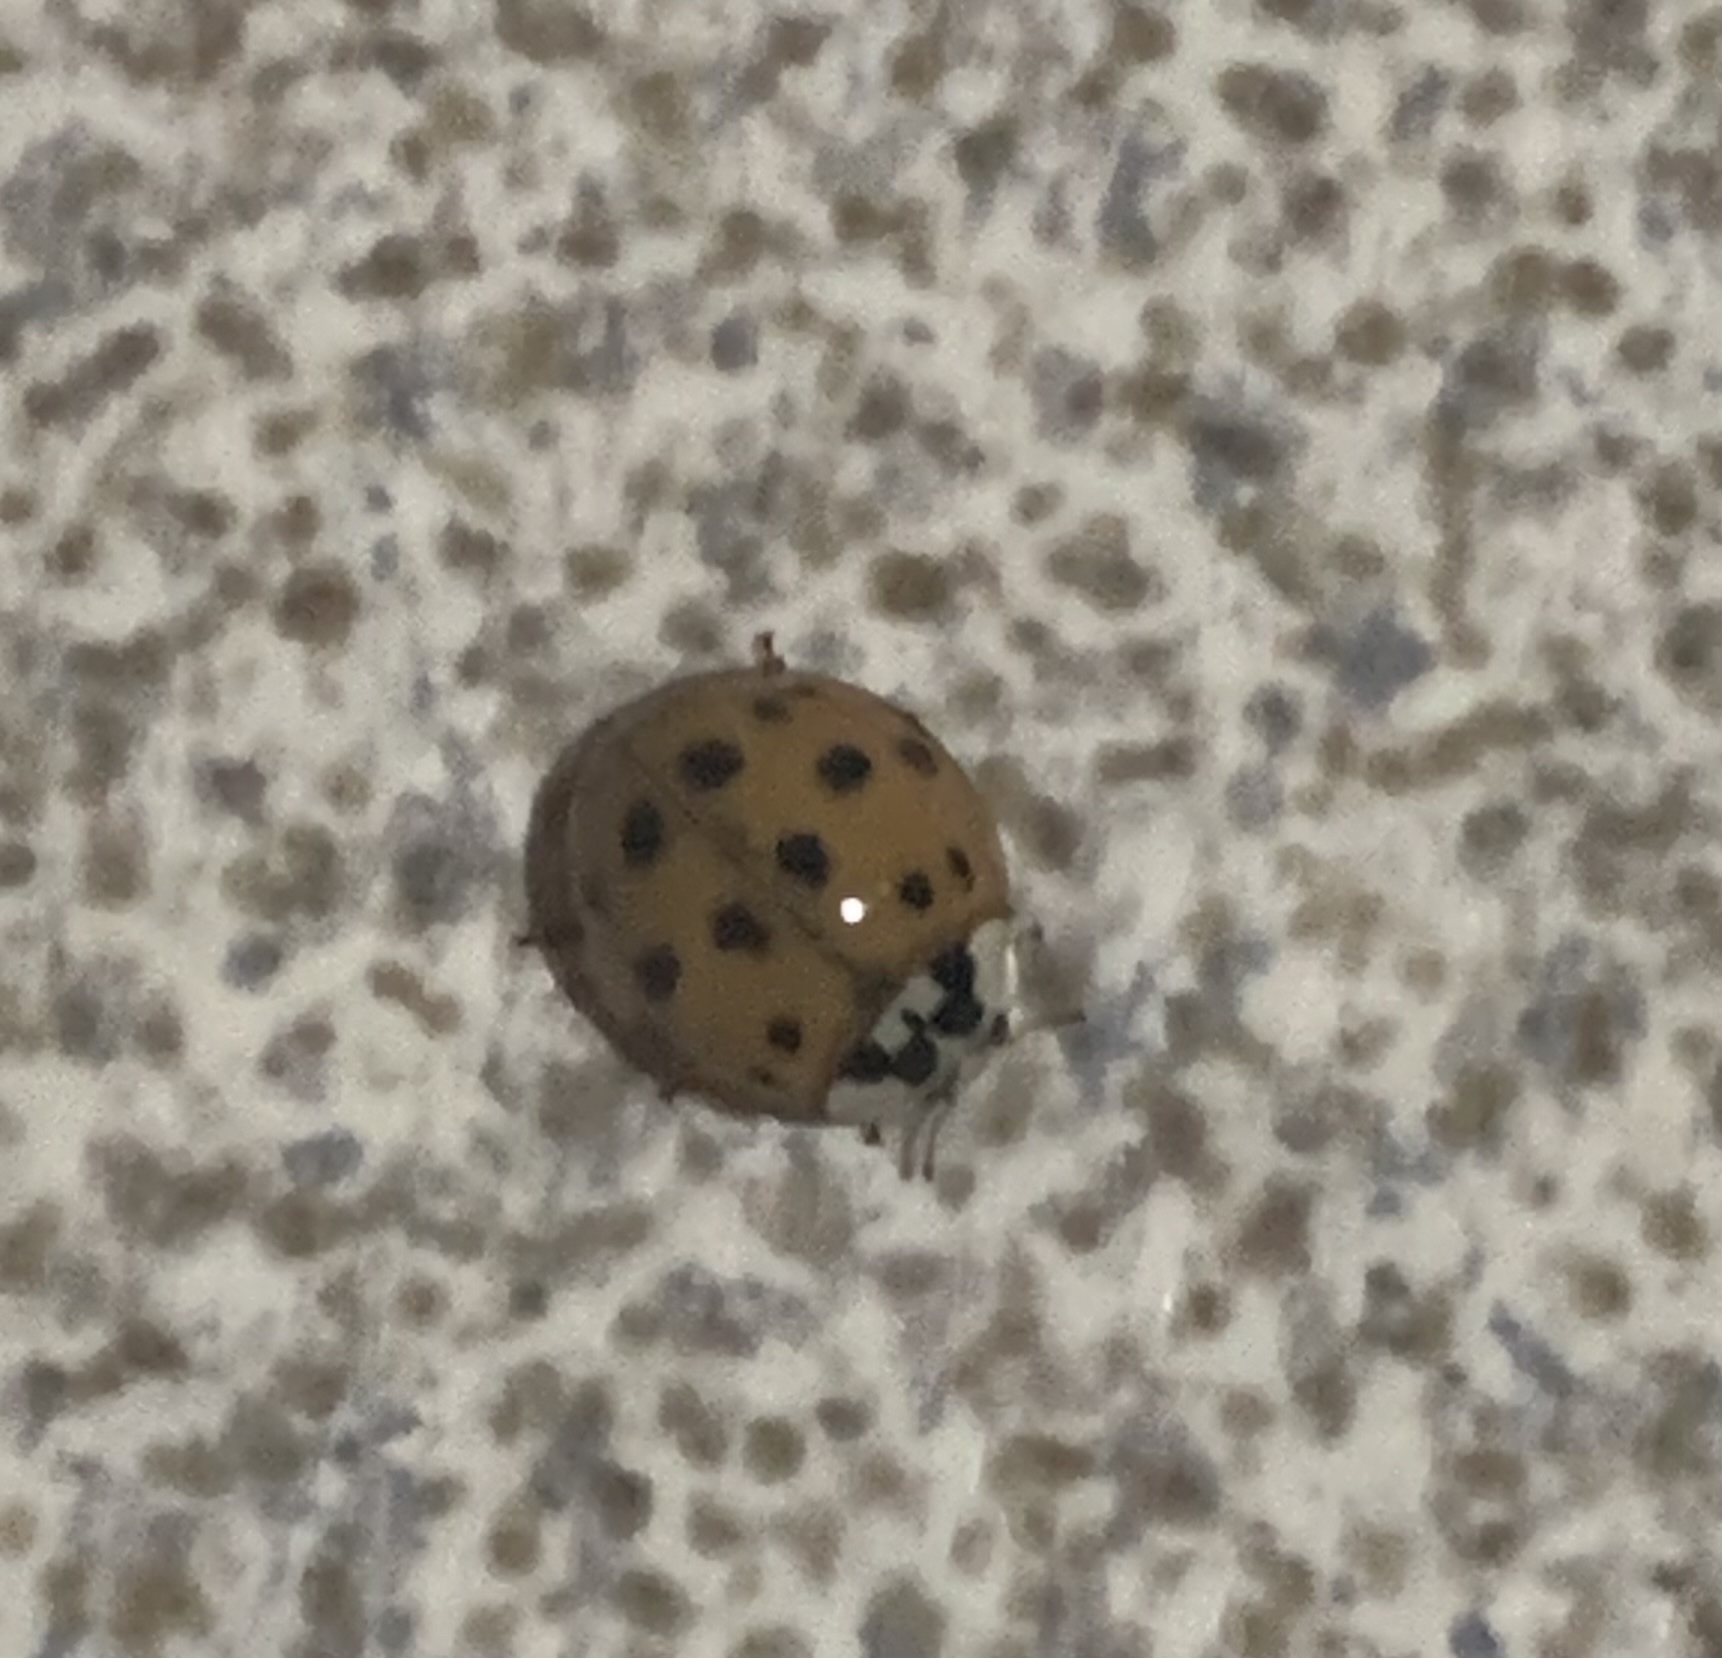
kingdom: Animalia
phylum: Arthropoda
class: Insecta
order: Coleoptera
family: Coccinellidae
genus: Harmonia
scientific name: Harmonia axyridis
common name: Harlequin ladybird
